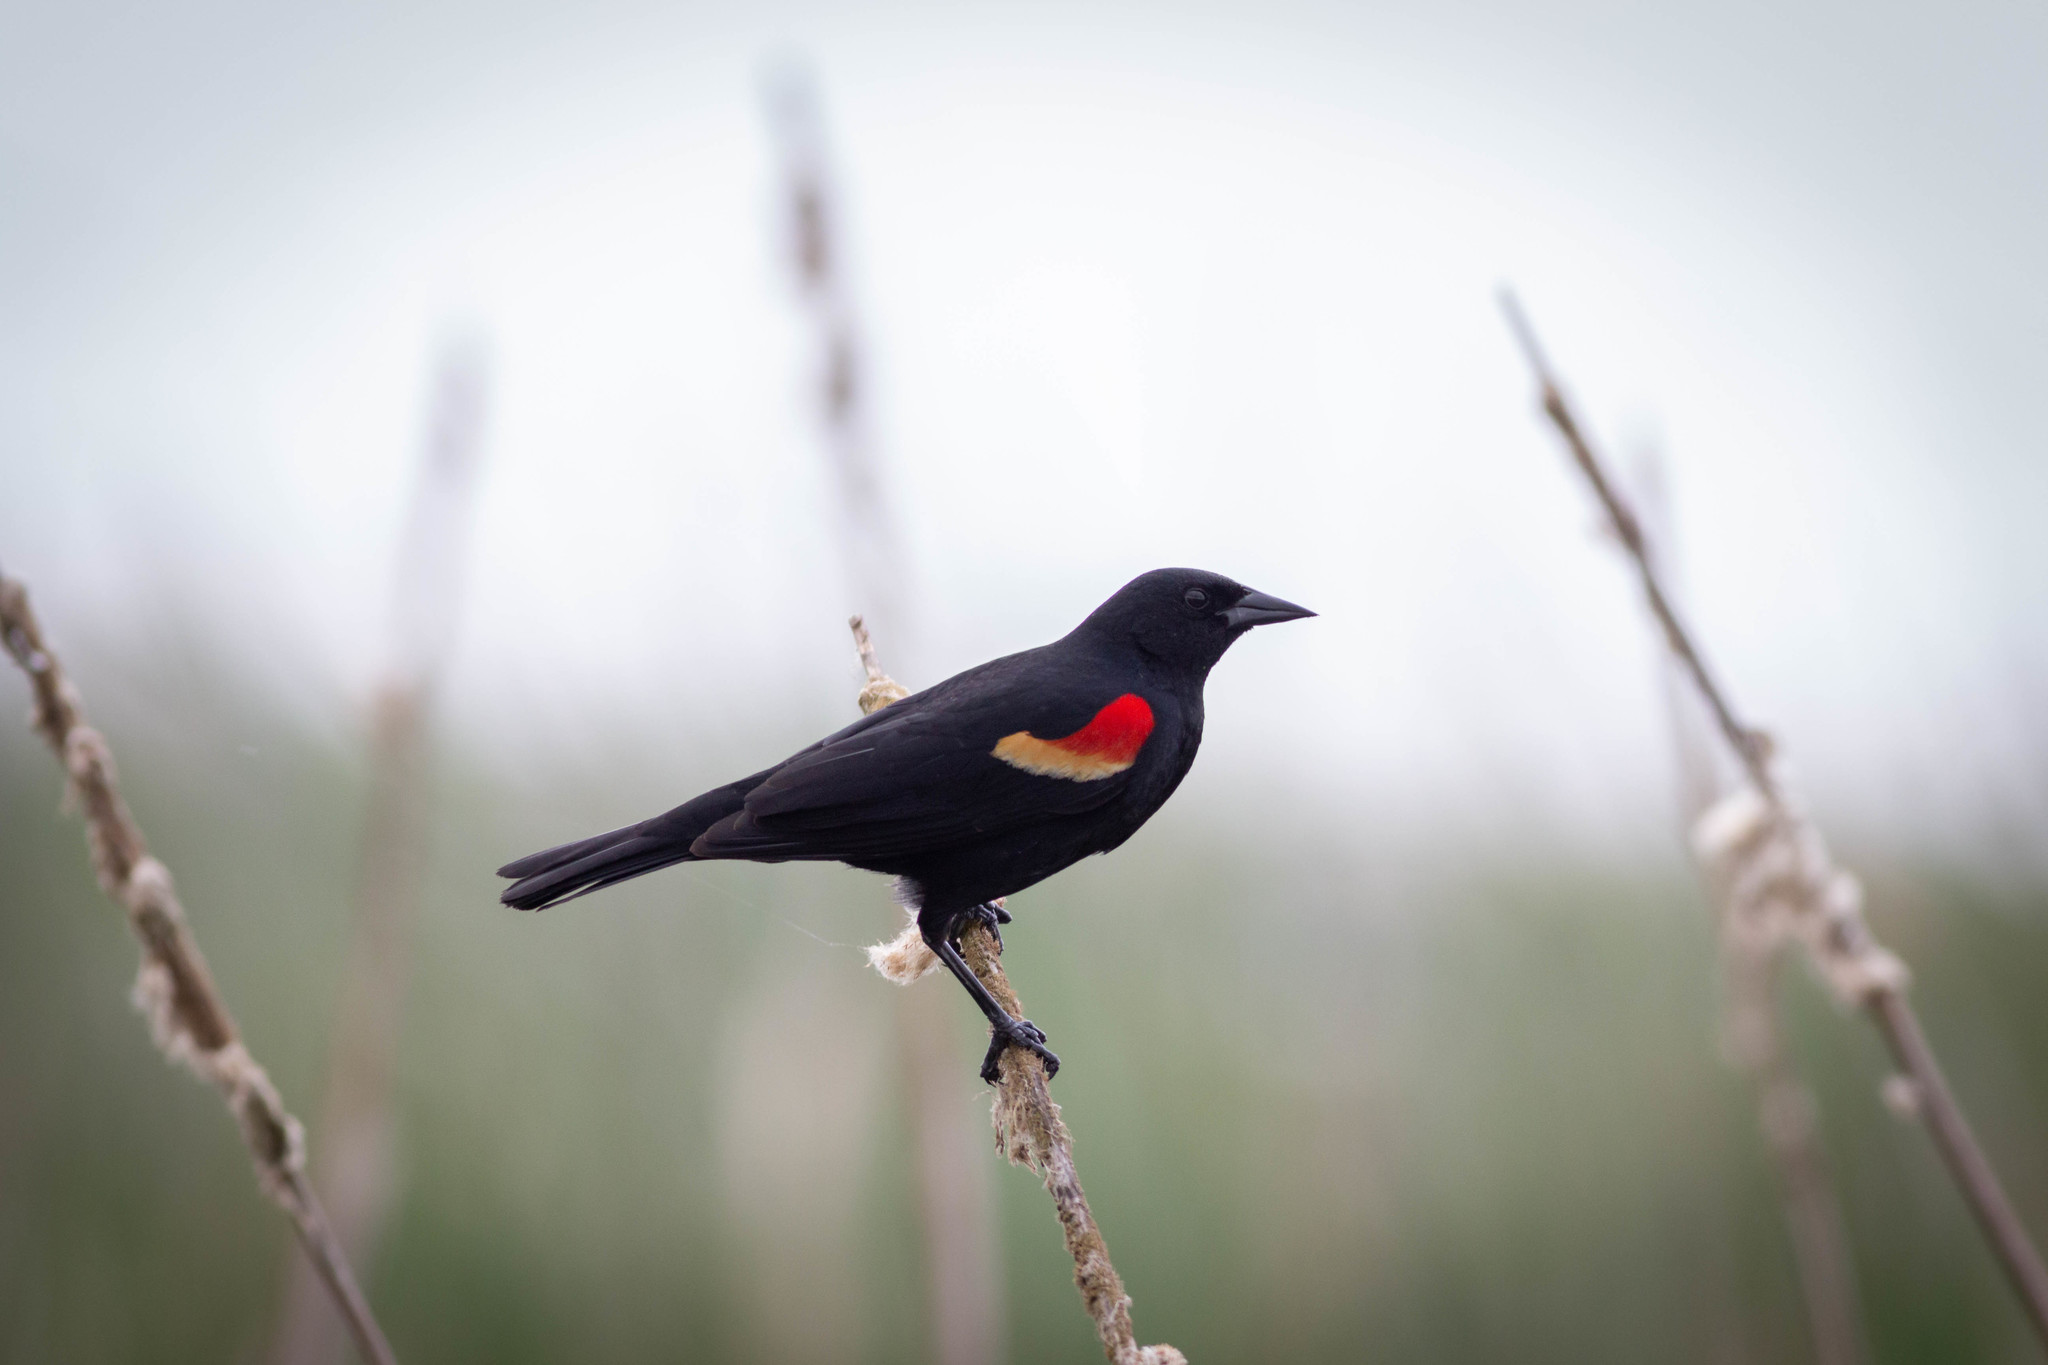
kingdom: Animalia
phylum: Chordata
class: Aves
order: Passeriformes
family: Icteridae
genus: Agelaius
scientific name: Agelaius phoeniceus
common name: Red-winged blackbird
